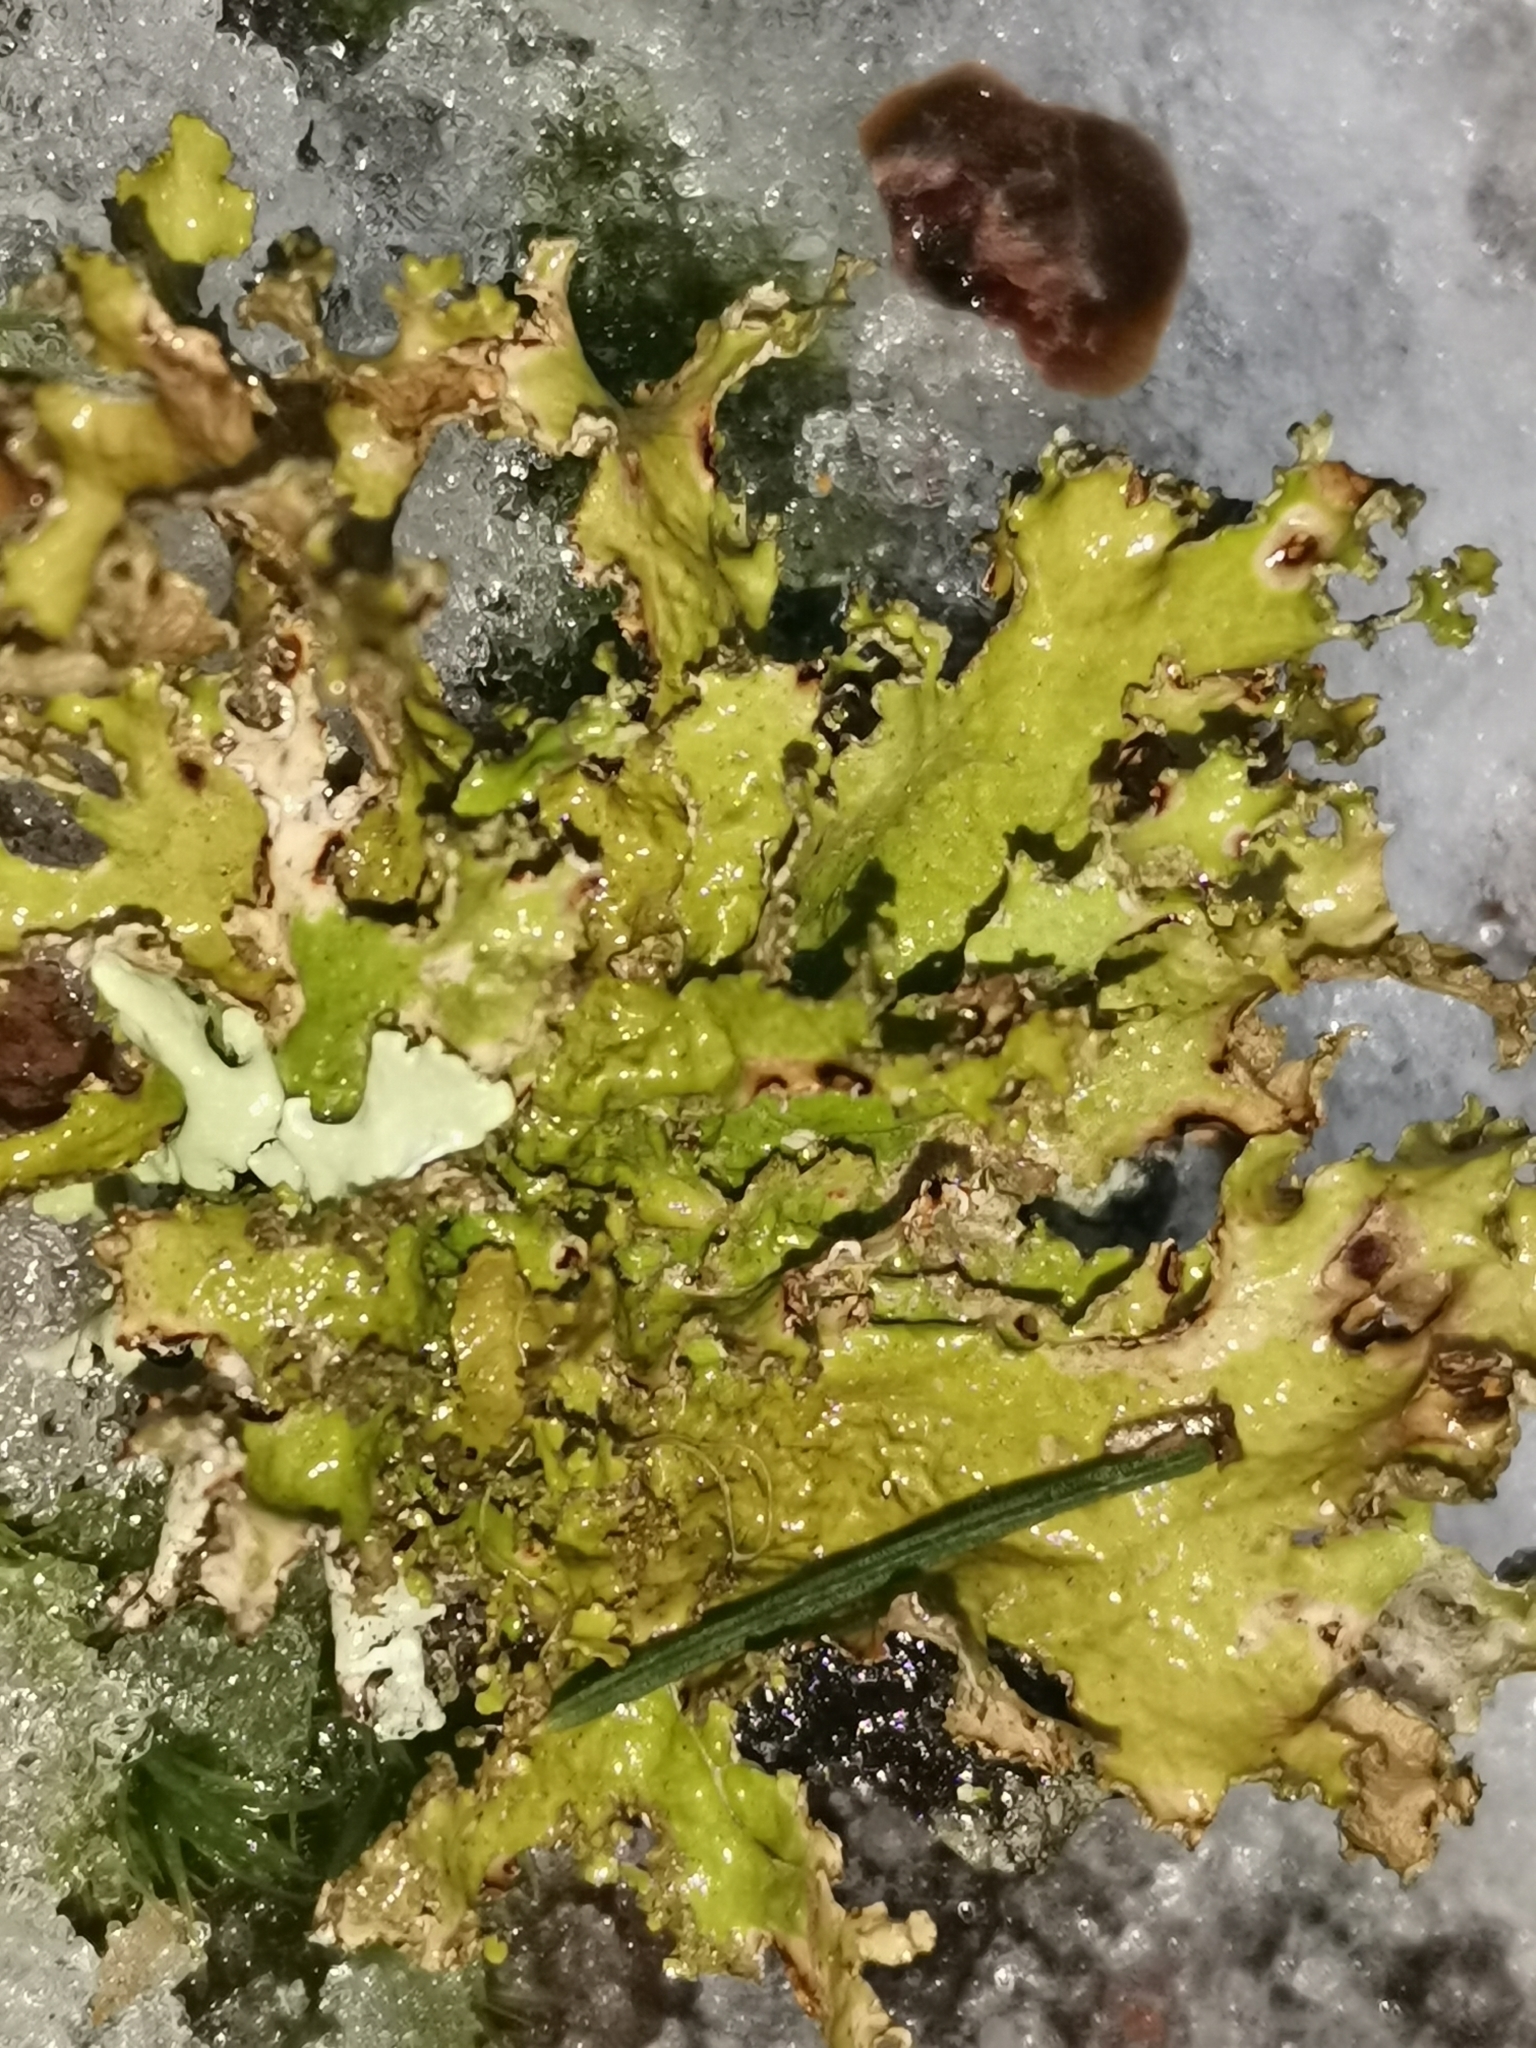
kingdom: Fungi
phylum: Ascomycota
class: Lecanoromycetes
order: Lecanorales
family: Parmeliaceae
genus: Nephromopsis
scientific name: Nephromopsis chlorophylla
